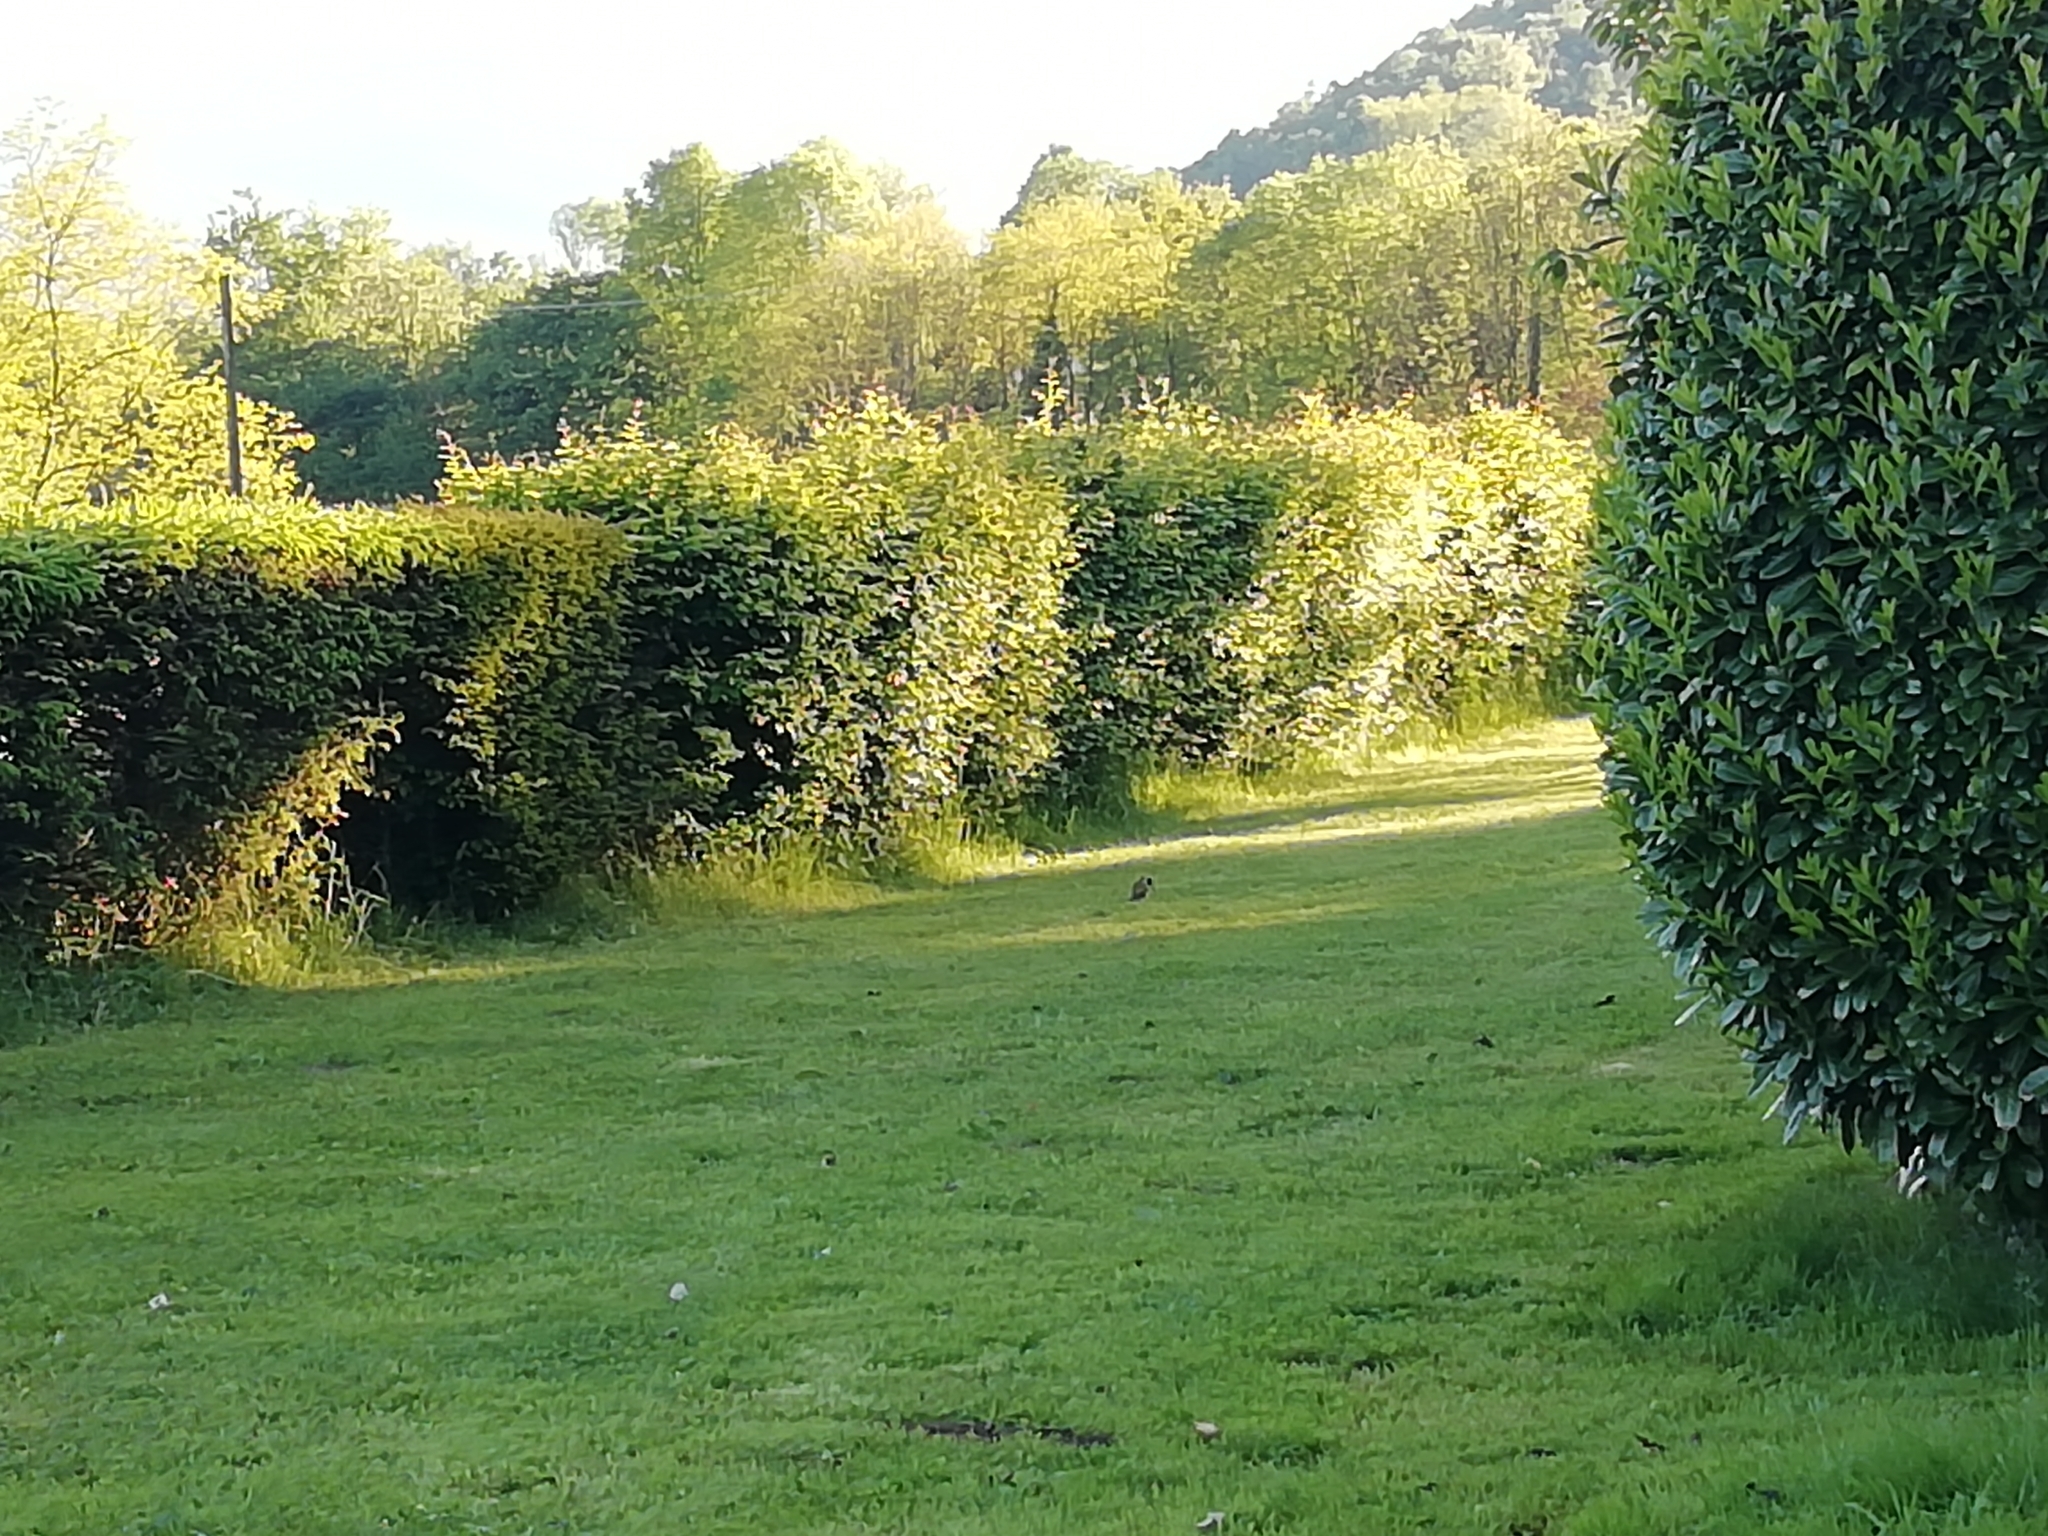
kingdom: Animalia
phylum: Chordata
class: Aves
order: Piciformes
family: Picidae
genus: Picus
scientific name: Picus viridis
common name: European green woodpecker
